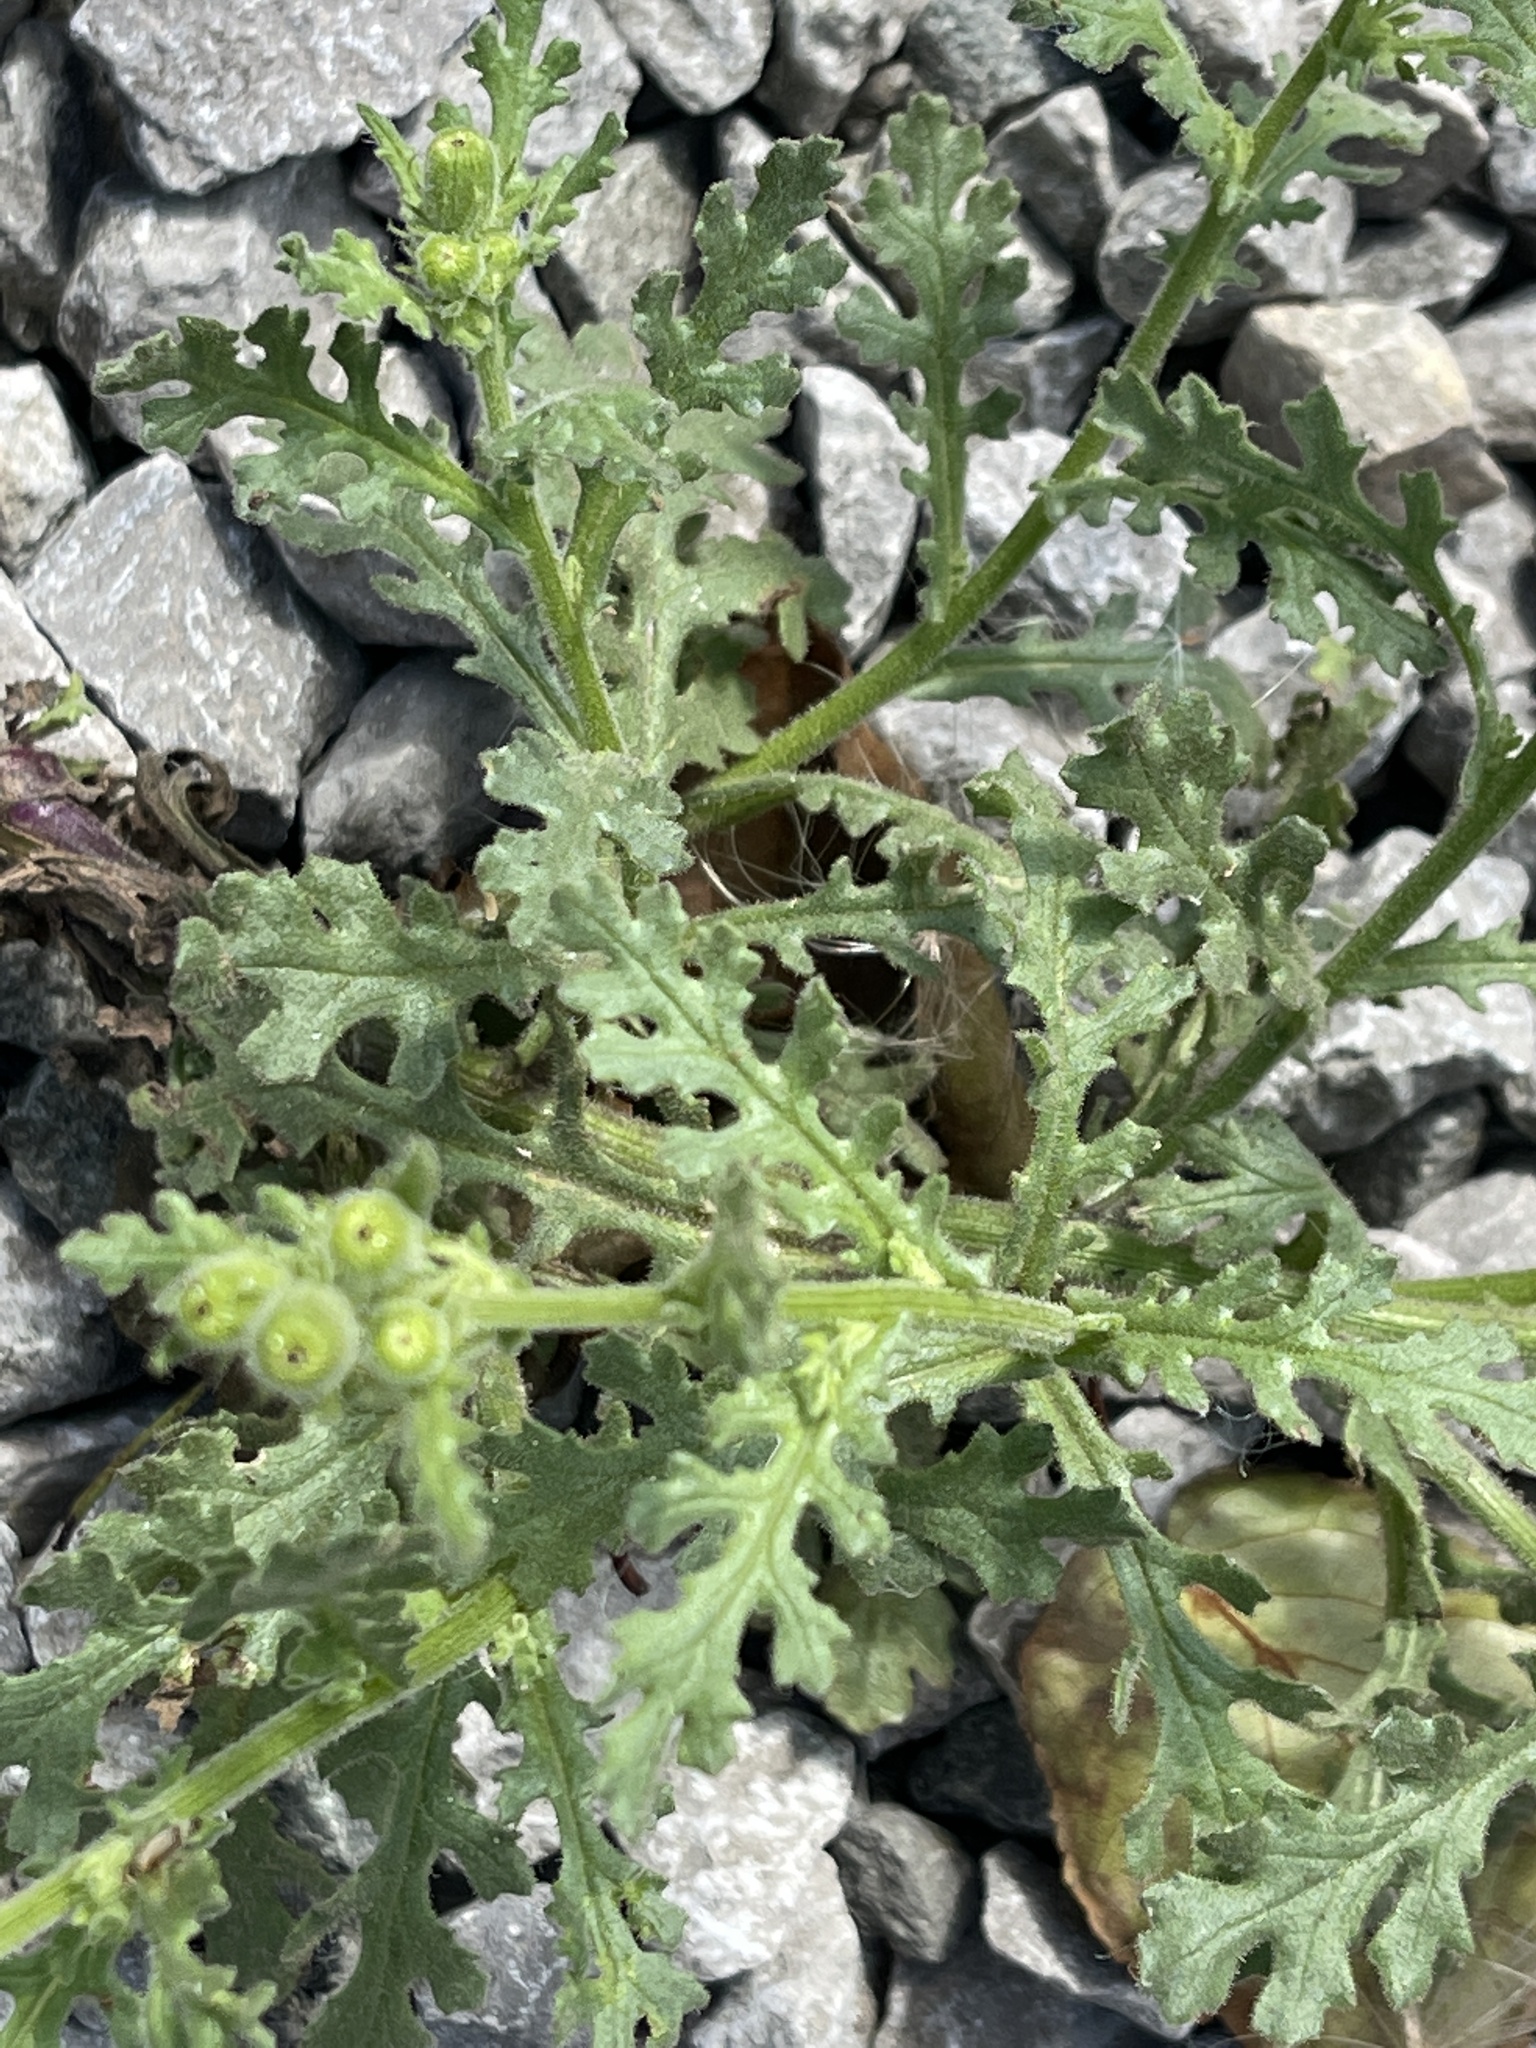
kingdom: Plantae
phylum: Tracheophyta
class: Magnoliopsida
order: Asterales
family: Asteraceae
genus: Senecio
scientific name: Senecio viscosus
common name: Sticky groundsel
